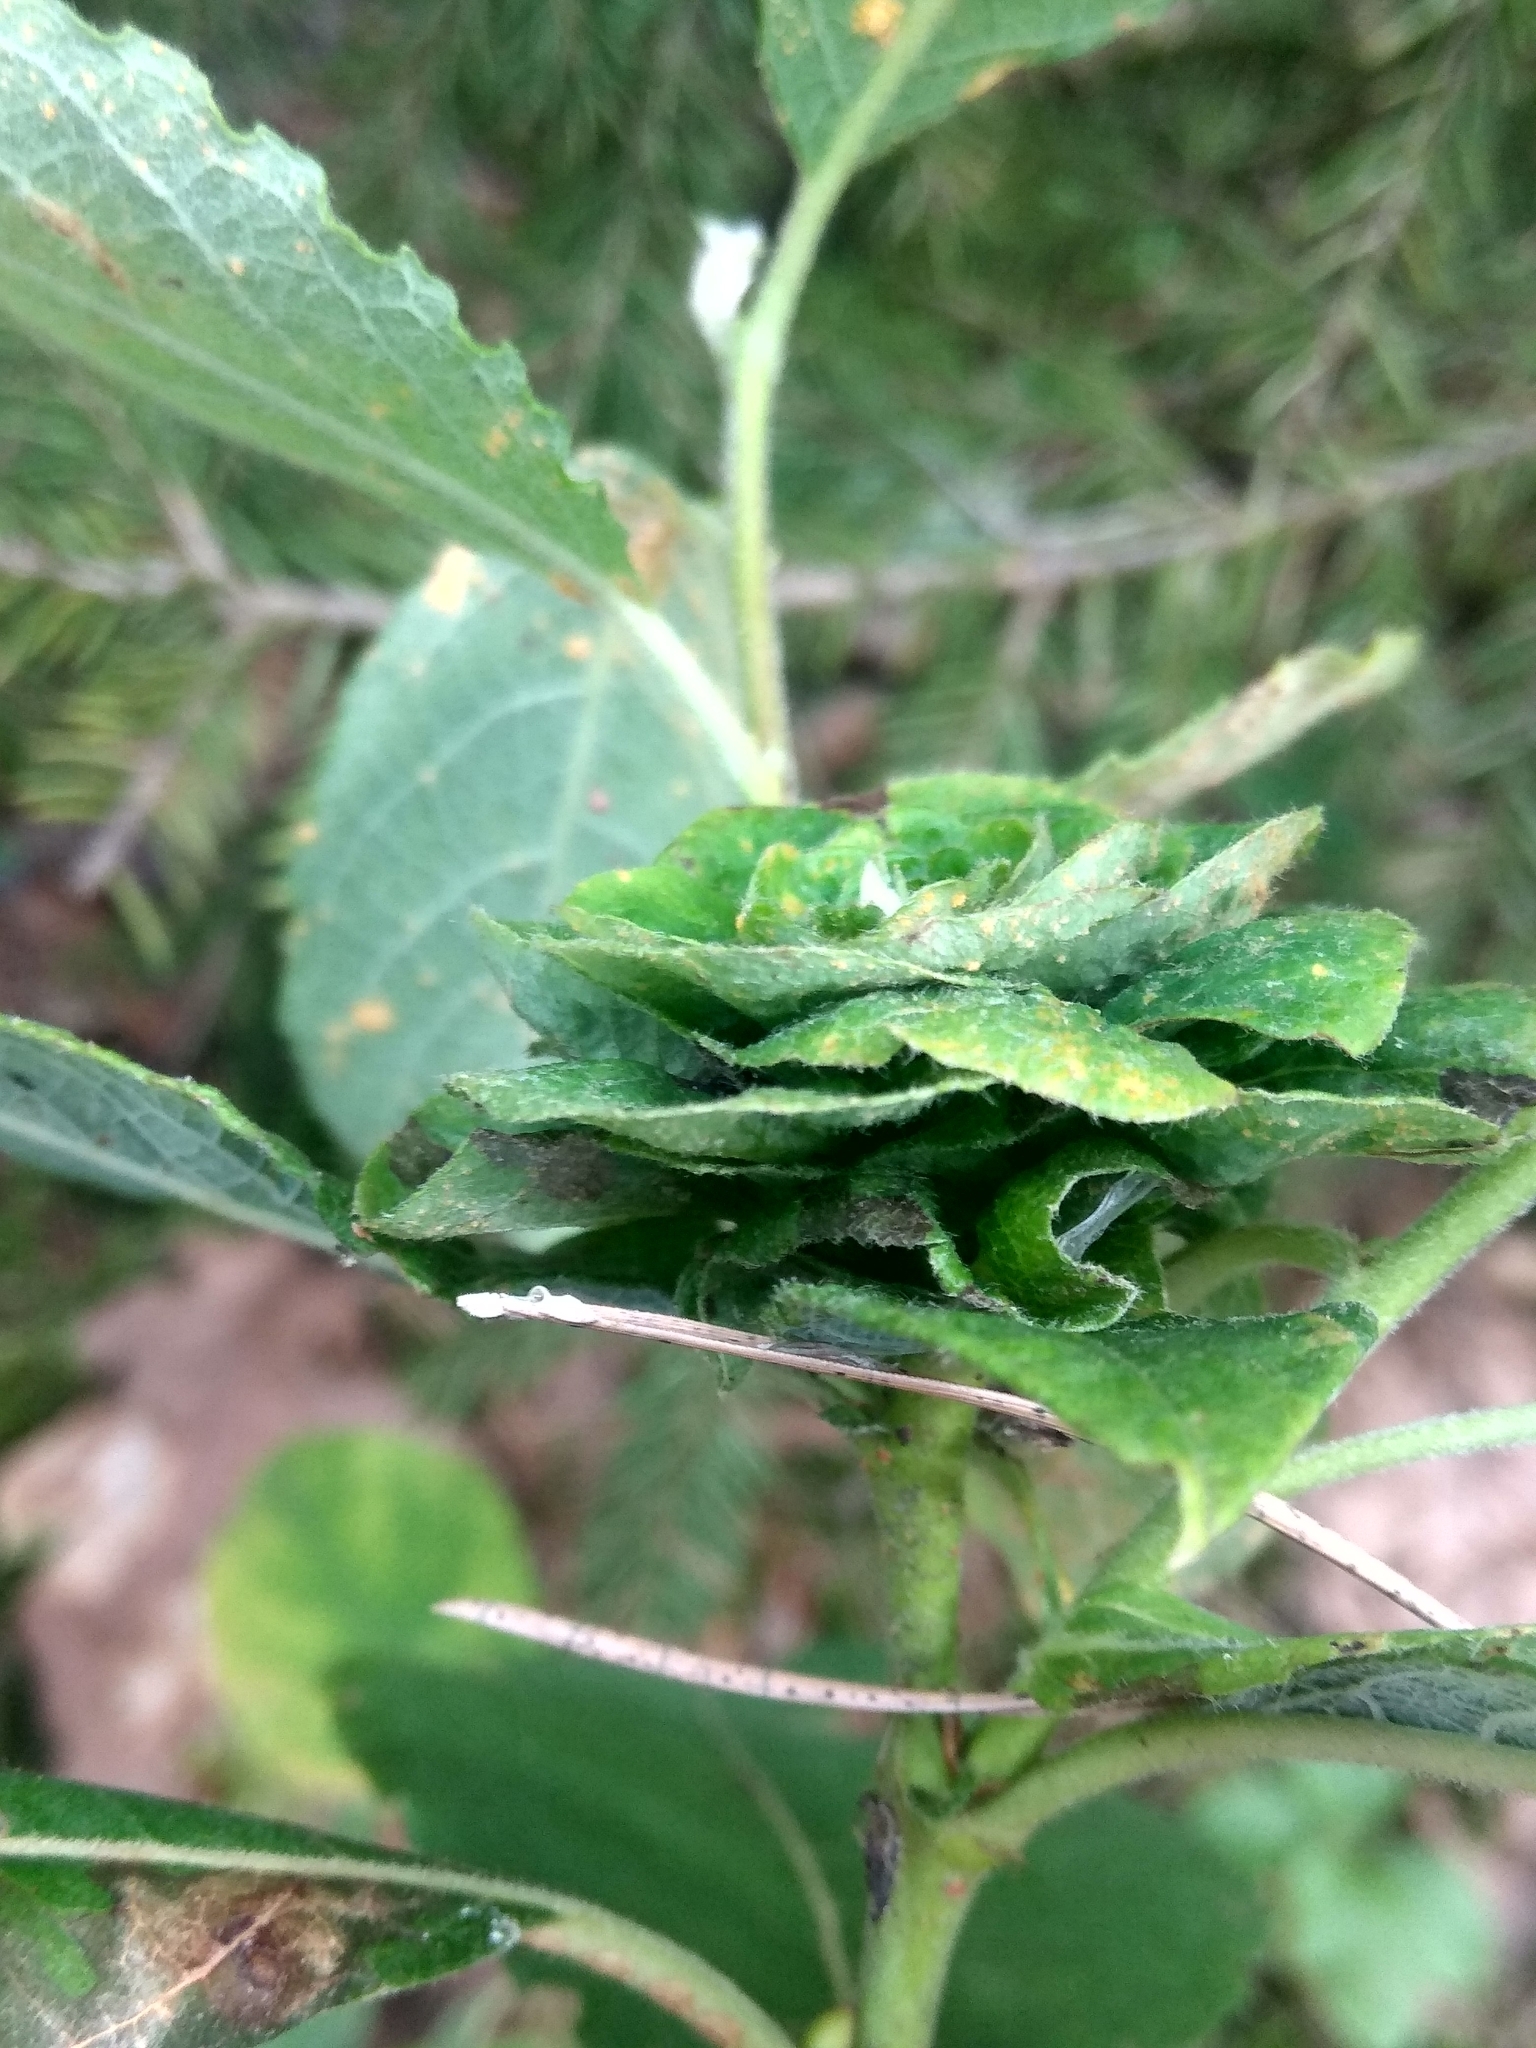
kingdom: Plantae
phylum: Tracheophyta
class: Magnoliopsida
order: Malpighiales
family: Salicaceae
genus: Salix
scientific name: Salix caprea
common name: Goat willow
